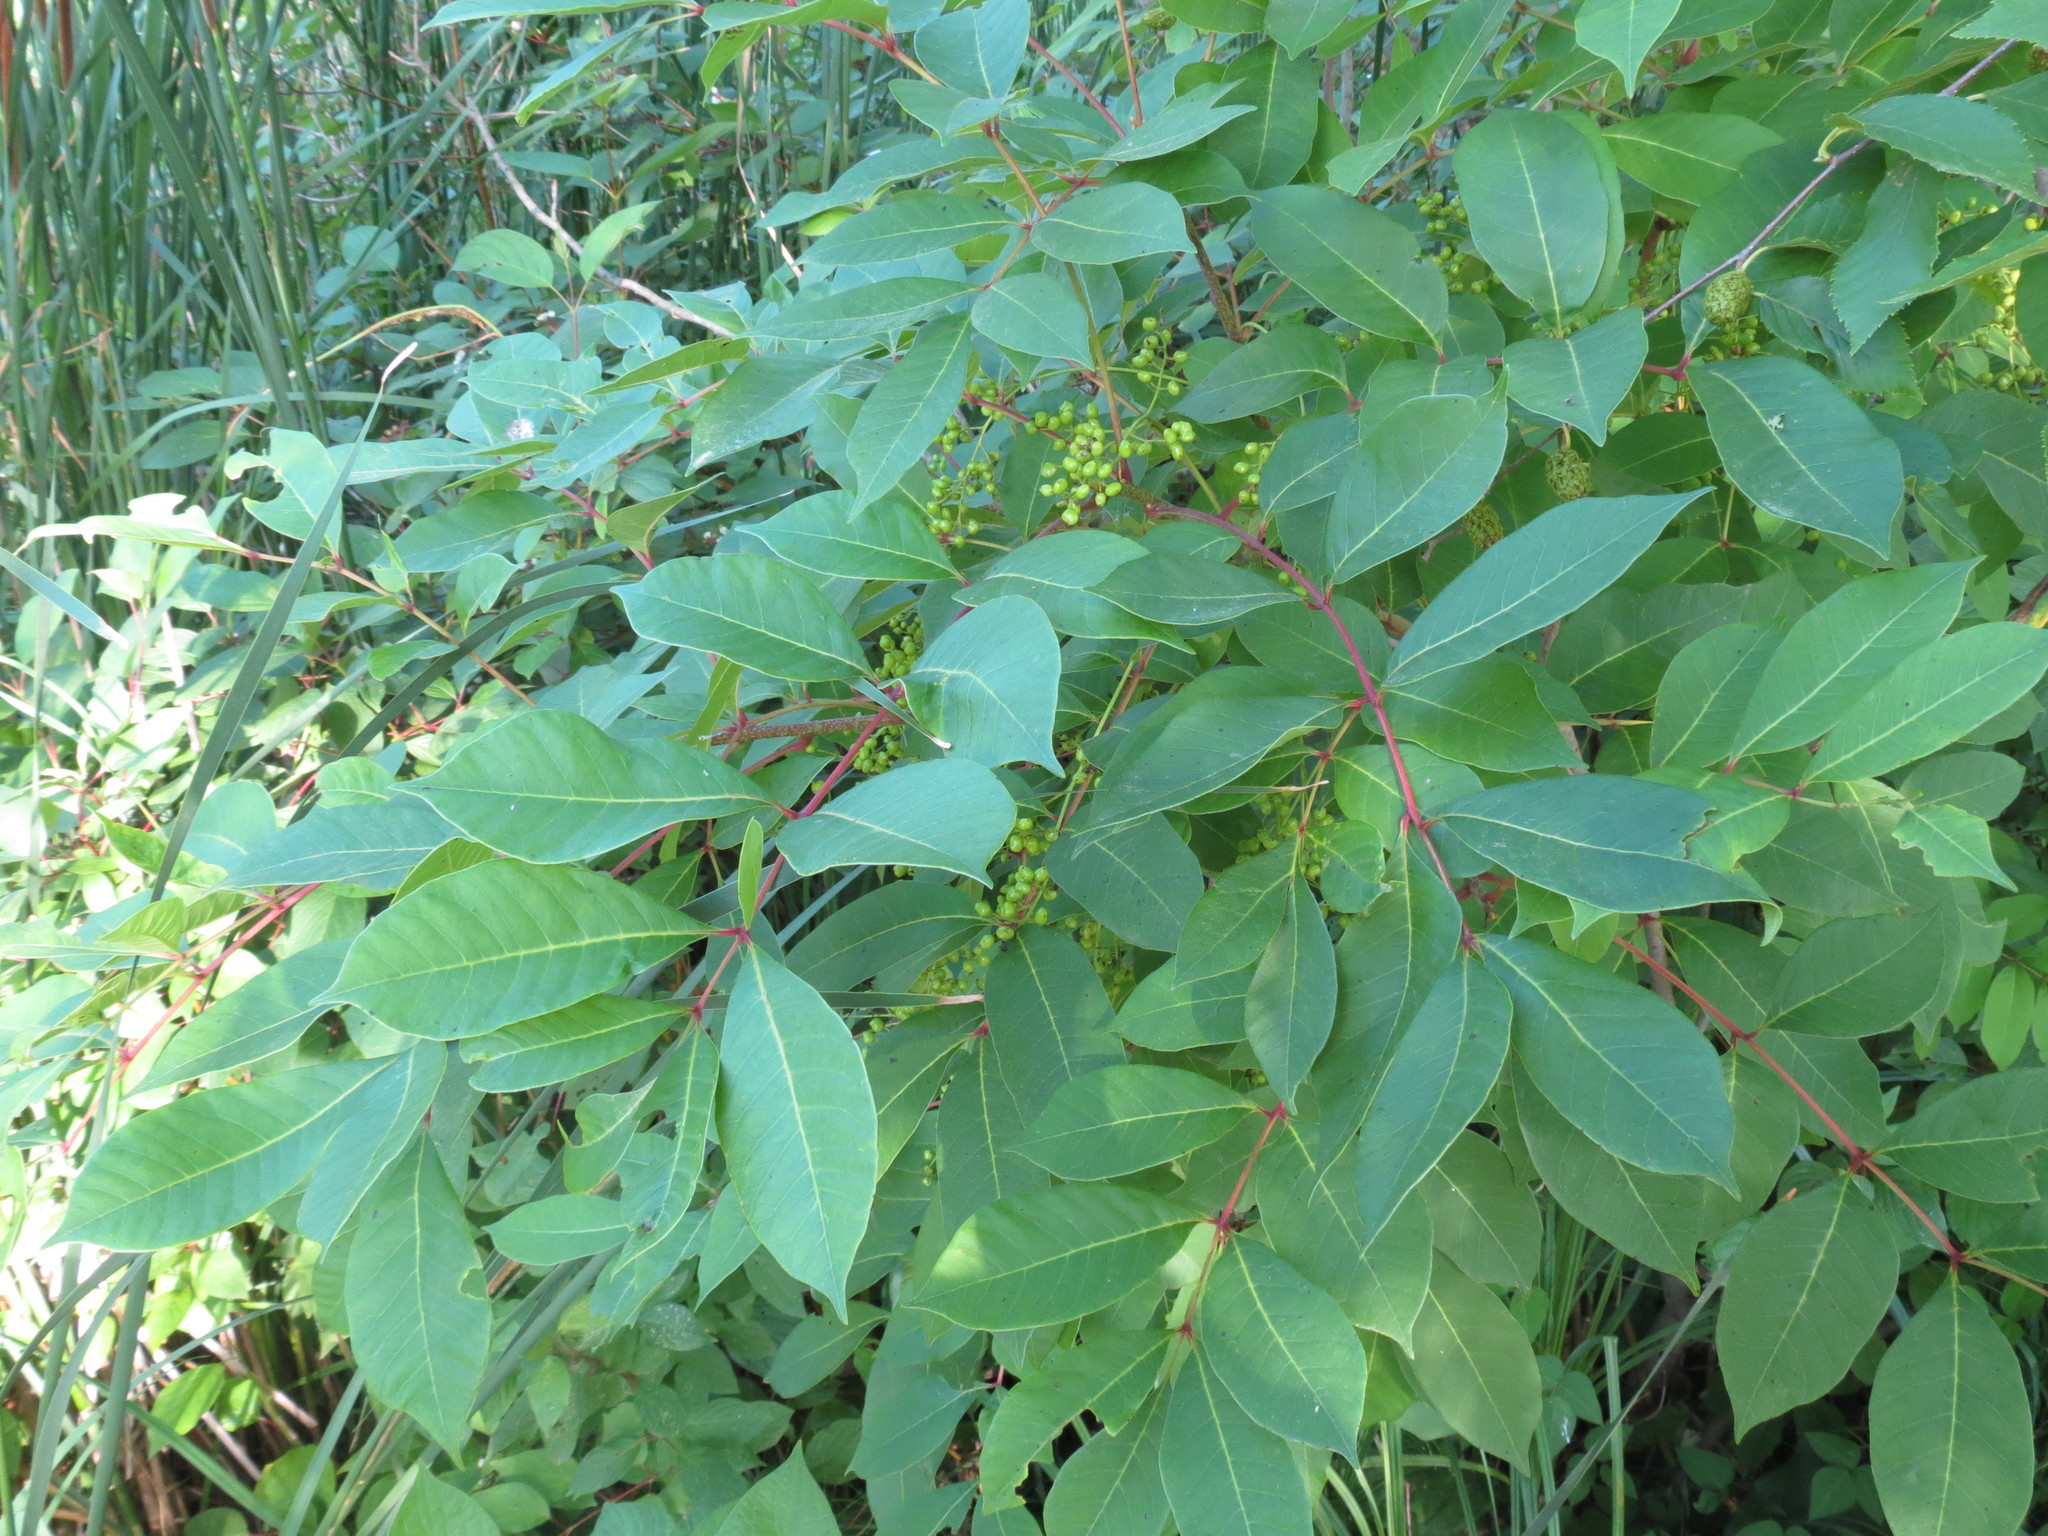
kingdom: Plantae
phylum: Tracheophyta
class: Magnoliopsida
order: Sapindales
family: Anacardiaceae
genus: Toxicodendron
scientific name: Toxicodendron vernix
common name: Poison sumac
